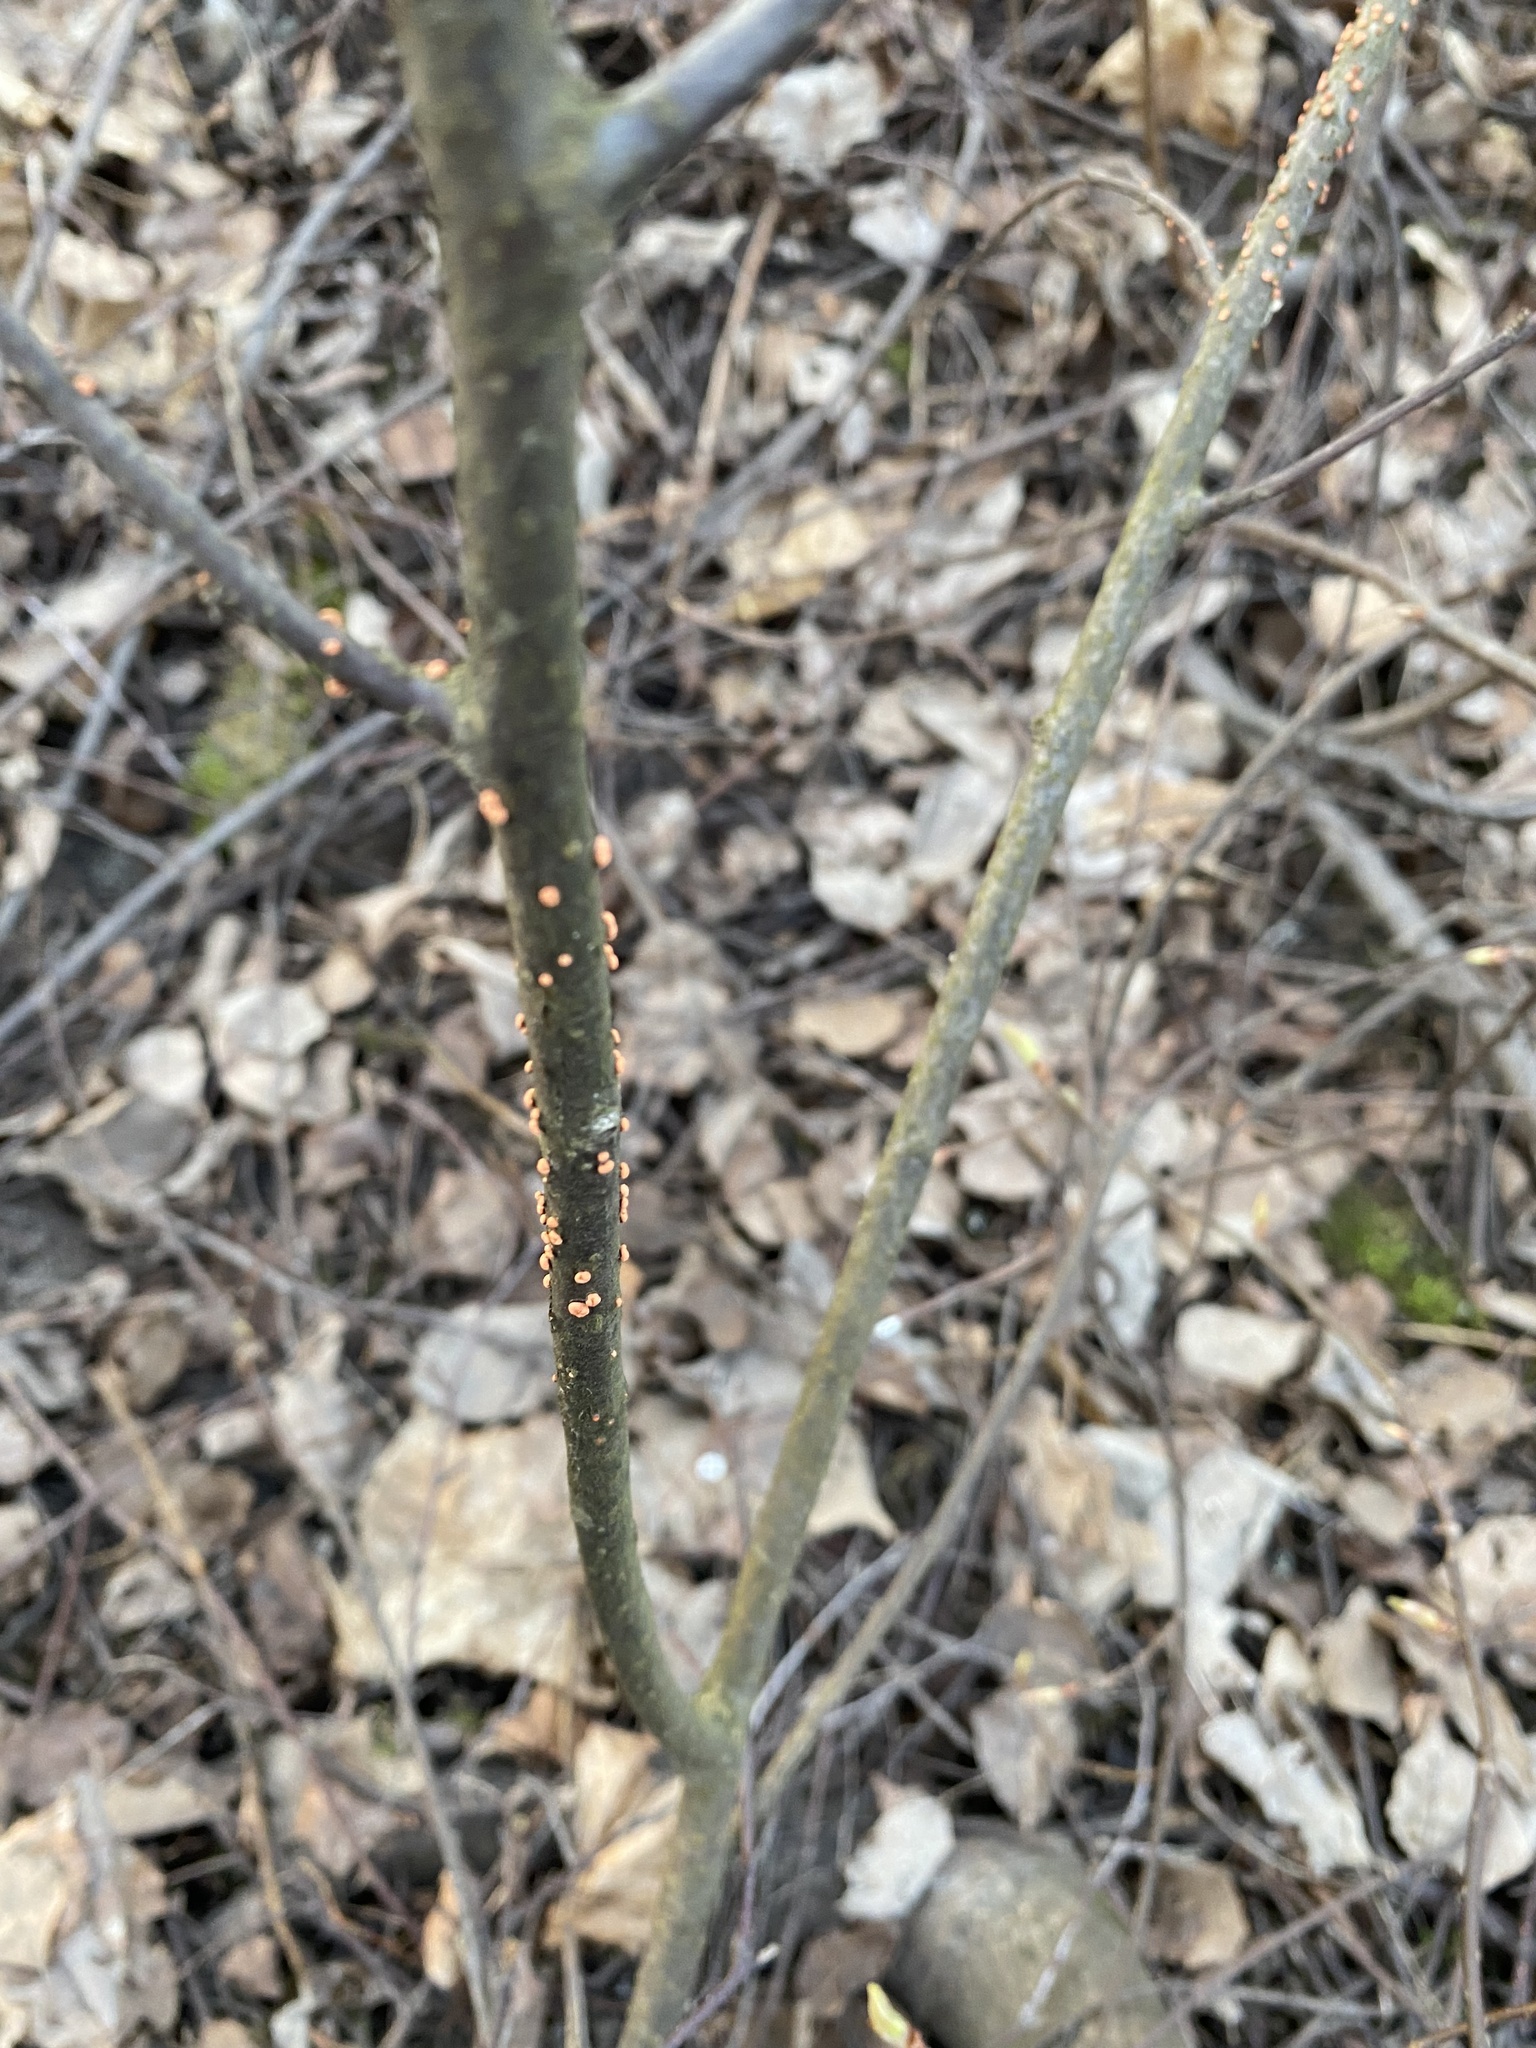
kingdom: Fungi
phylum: Ascomycota
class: Sordariomycetes
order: Hypocreales
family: Nectriaceae
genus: Nectria
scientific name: Nectria cinnabarina
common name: Coral spot
